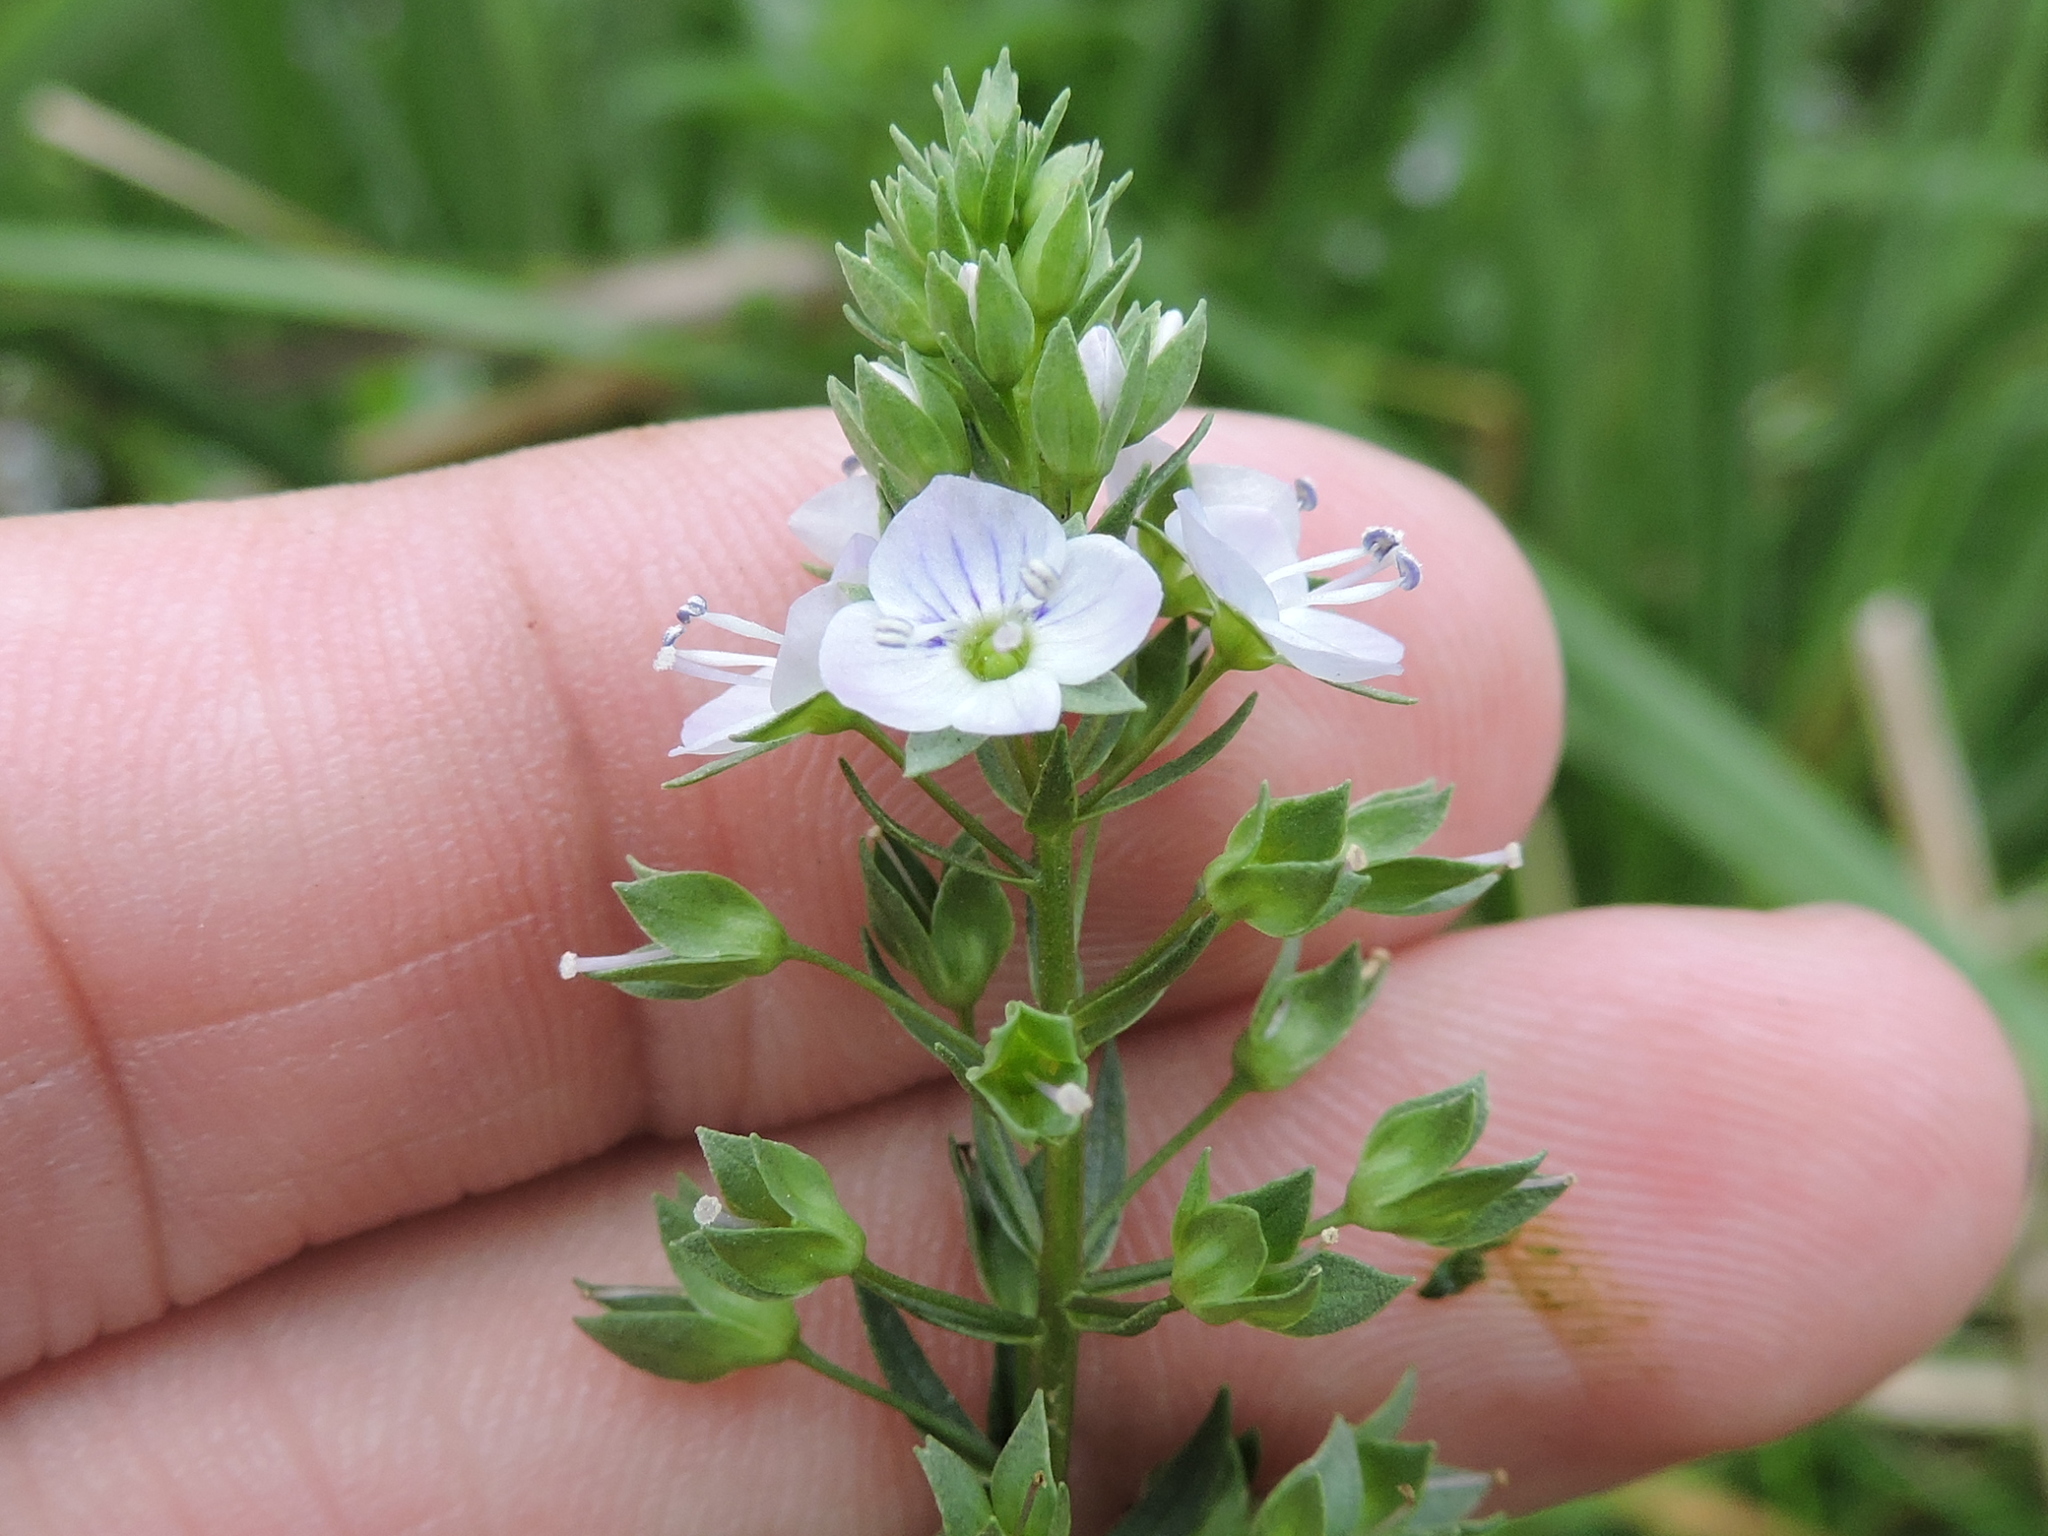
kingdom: Plantae
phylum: Tracheophyta
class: Magnoliopsida
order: Lamiales
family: Plantaginaceae
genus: Veronica
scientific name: Veronica anagallis-aquatica
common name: Water speedwell
